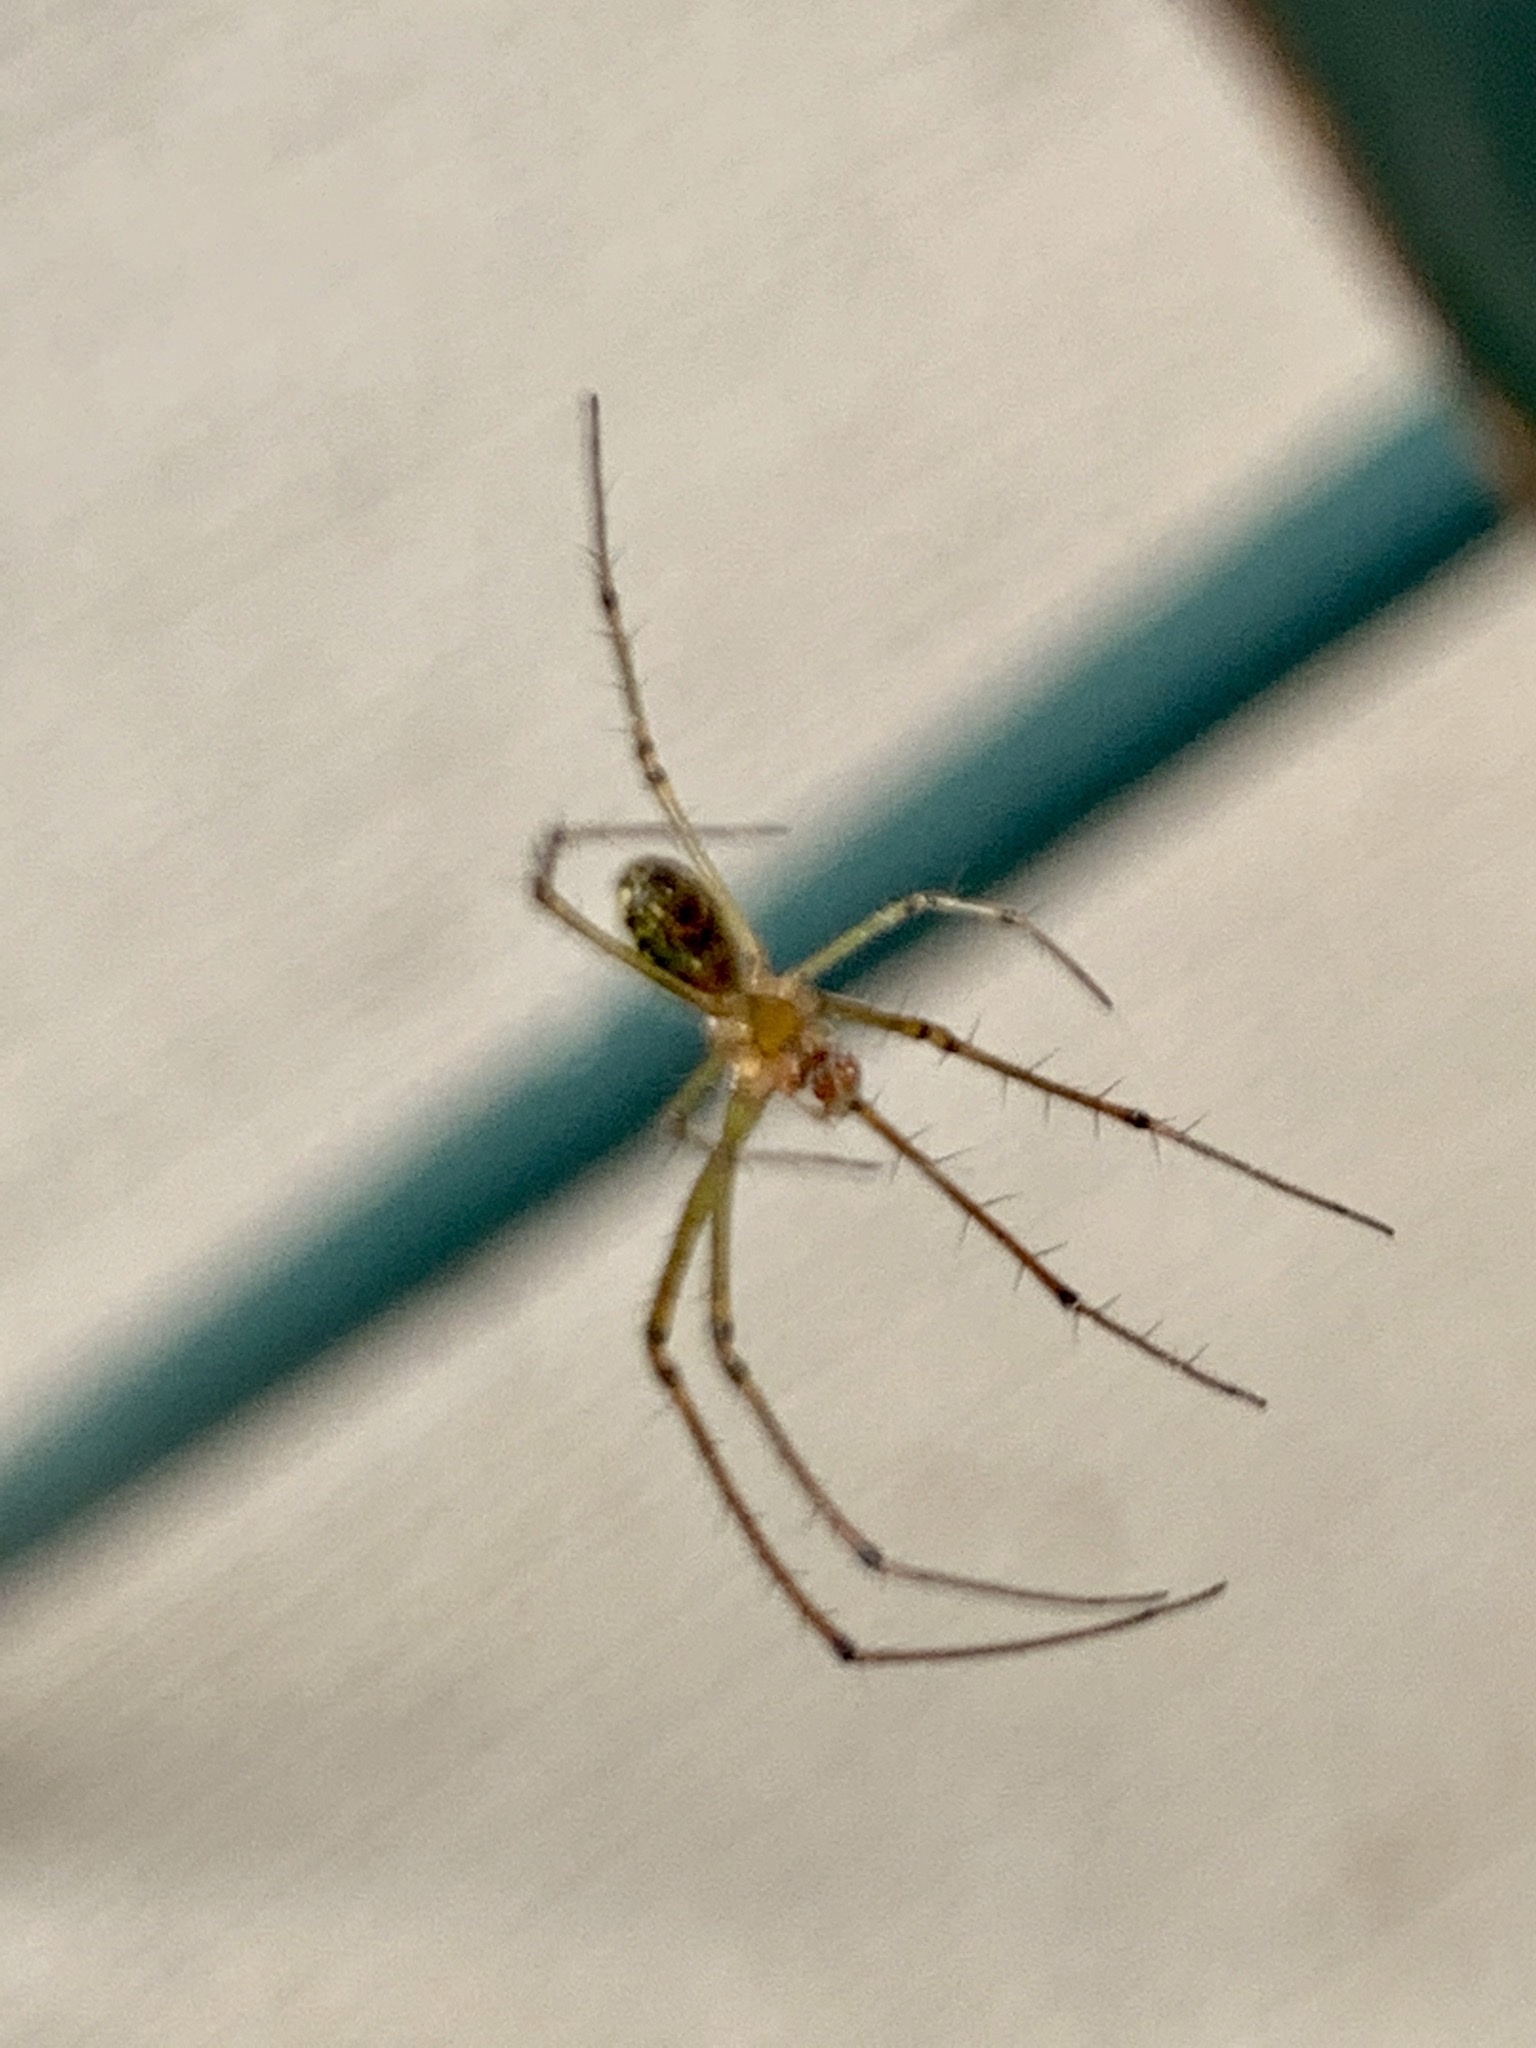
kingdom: Animalia
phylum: Arthropoda
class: Arachnida
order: Araneae
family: Tetragnathidae
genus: Leucauge
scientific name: Leucauge venusta
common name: Longjawed orb weavers
